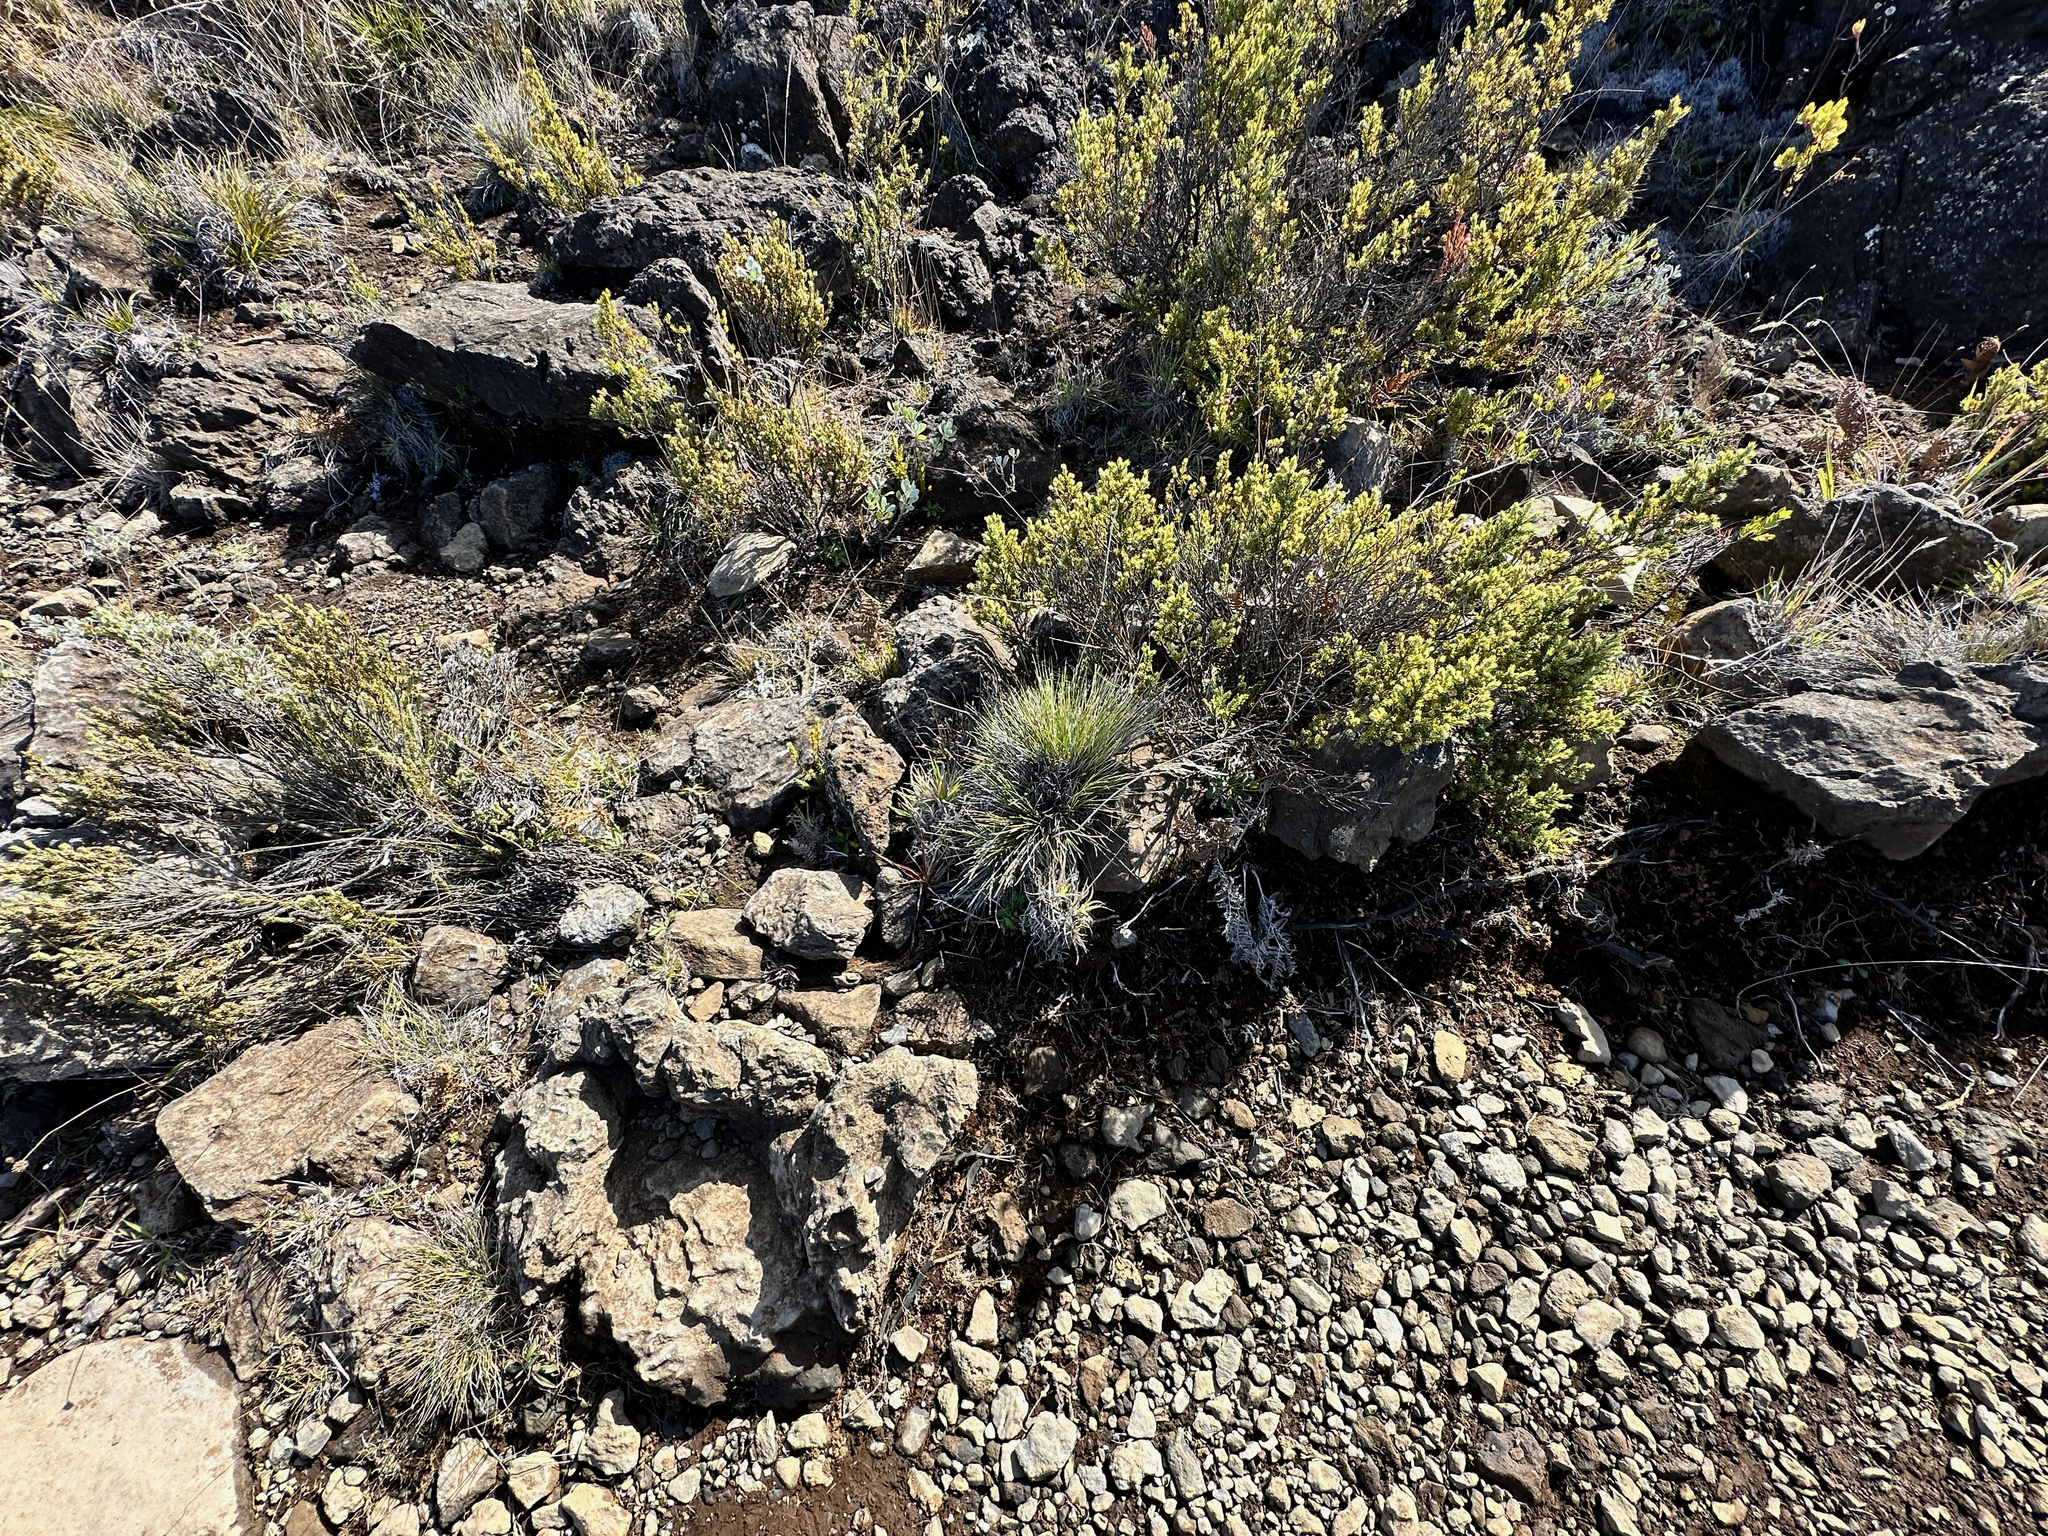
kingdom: Plantae
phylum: Tracheophyta
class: Liliopsida
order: Poales
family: Poaceae
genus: Deschampsia
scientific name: Deschampsia nubigena
